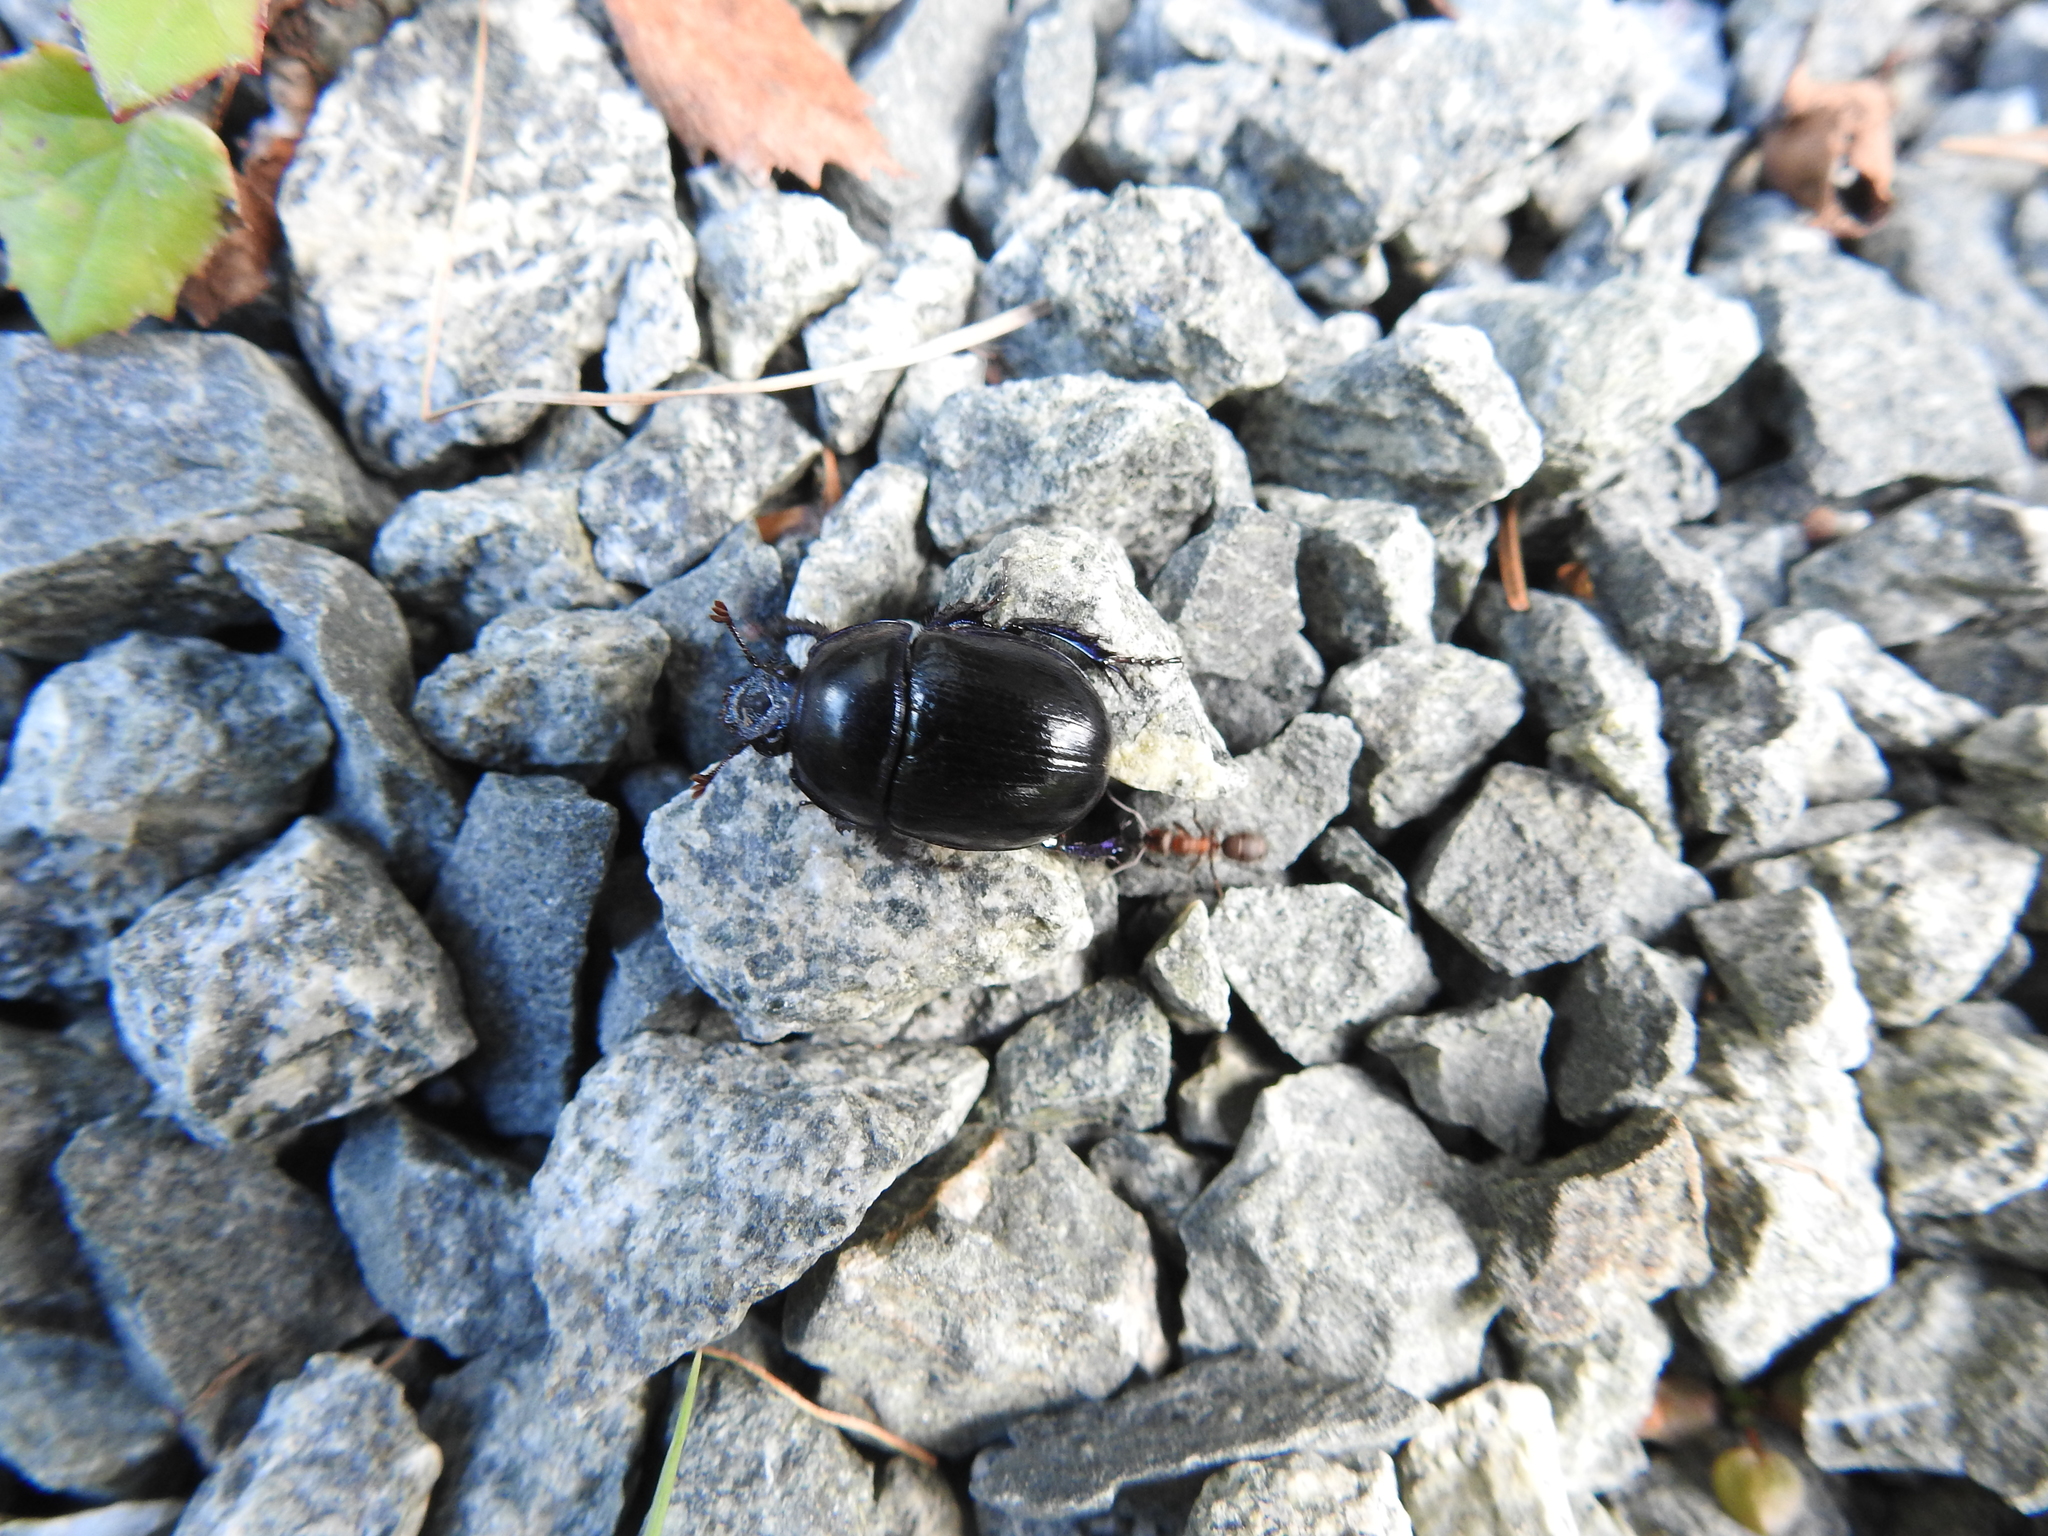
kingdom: Animalia
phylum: Arthropoda
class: Insecta
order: Coleoptera
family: Geotrupidae
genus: Anoplotrupes
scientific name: Anoplotrupes stercorosus
